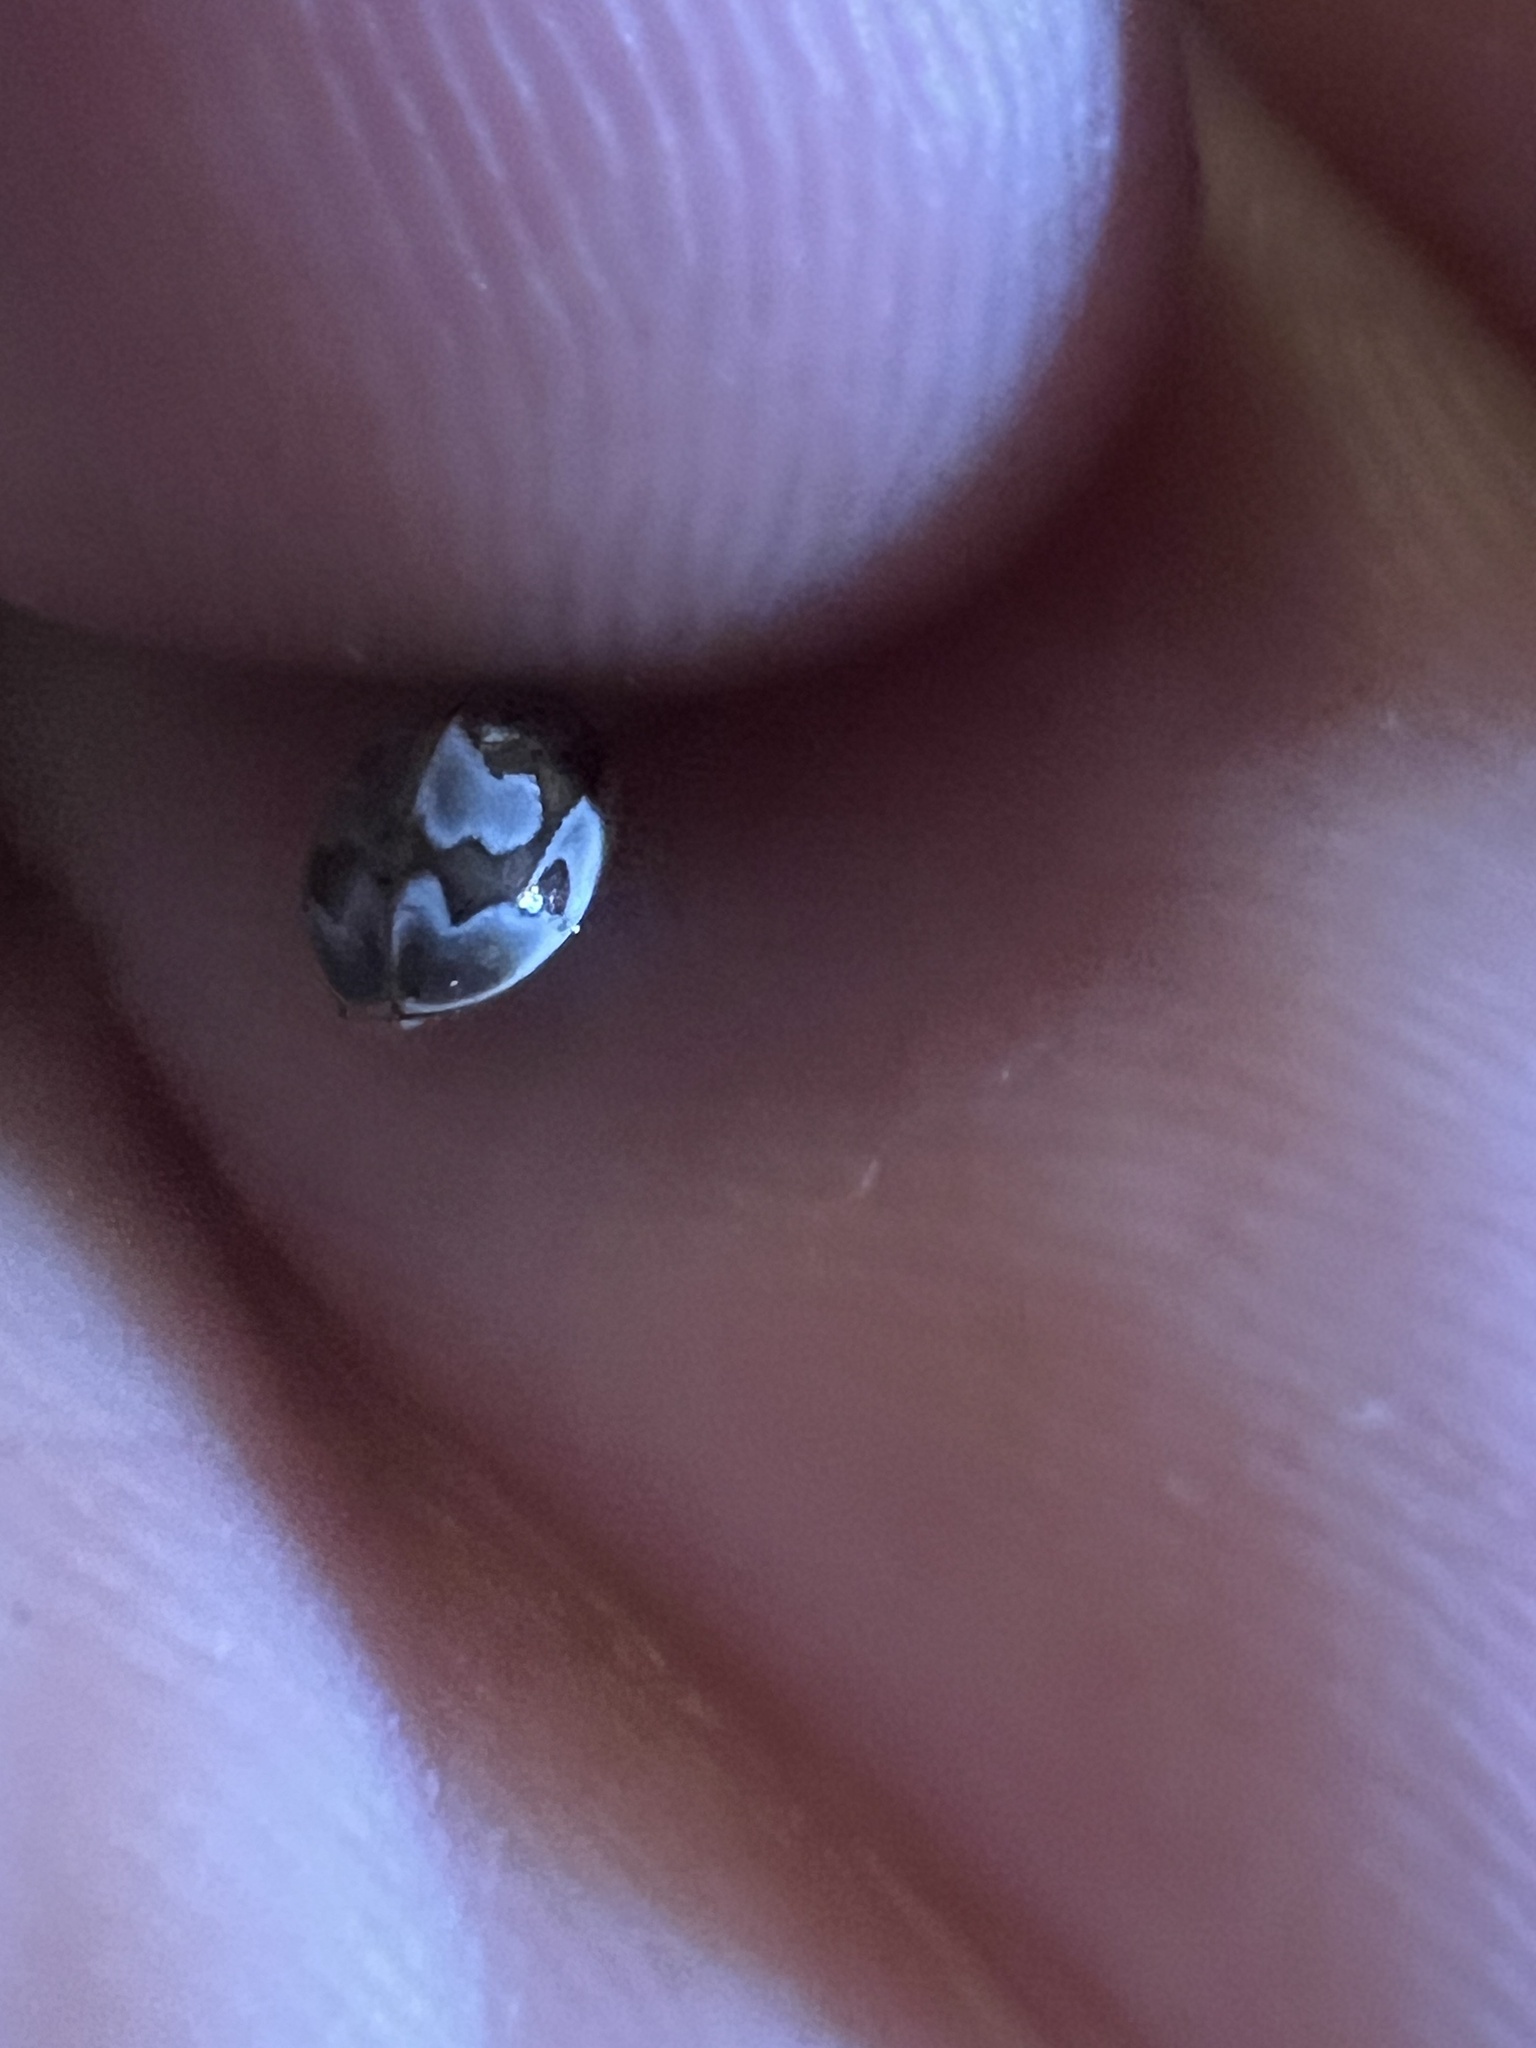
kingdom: Animalia
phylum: Arthropoda
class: Insecta
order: Coleoptera
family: Coccinellidae
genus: Mulsantina
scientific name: Mulsantina picta
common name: Painted ladybird
